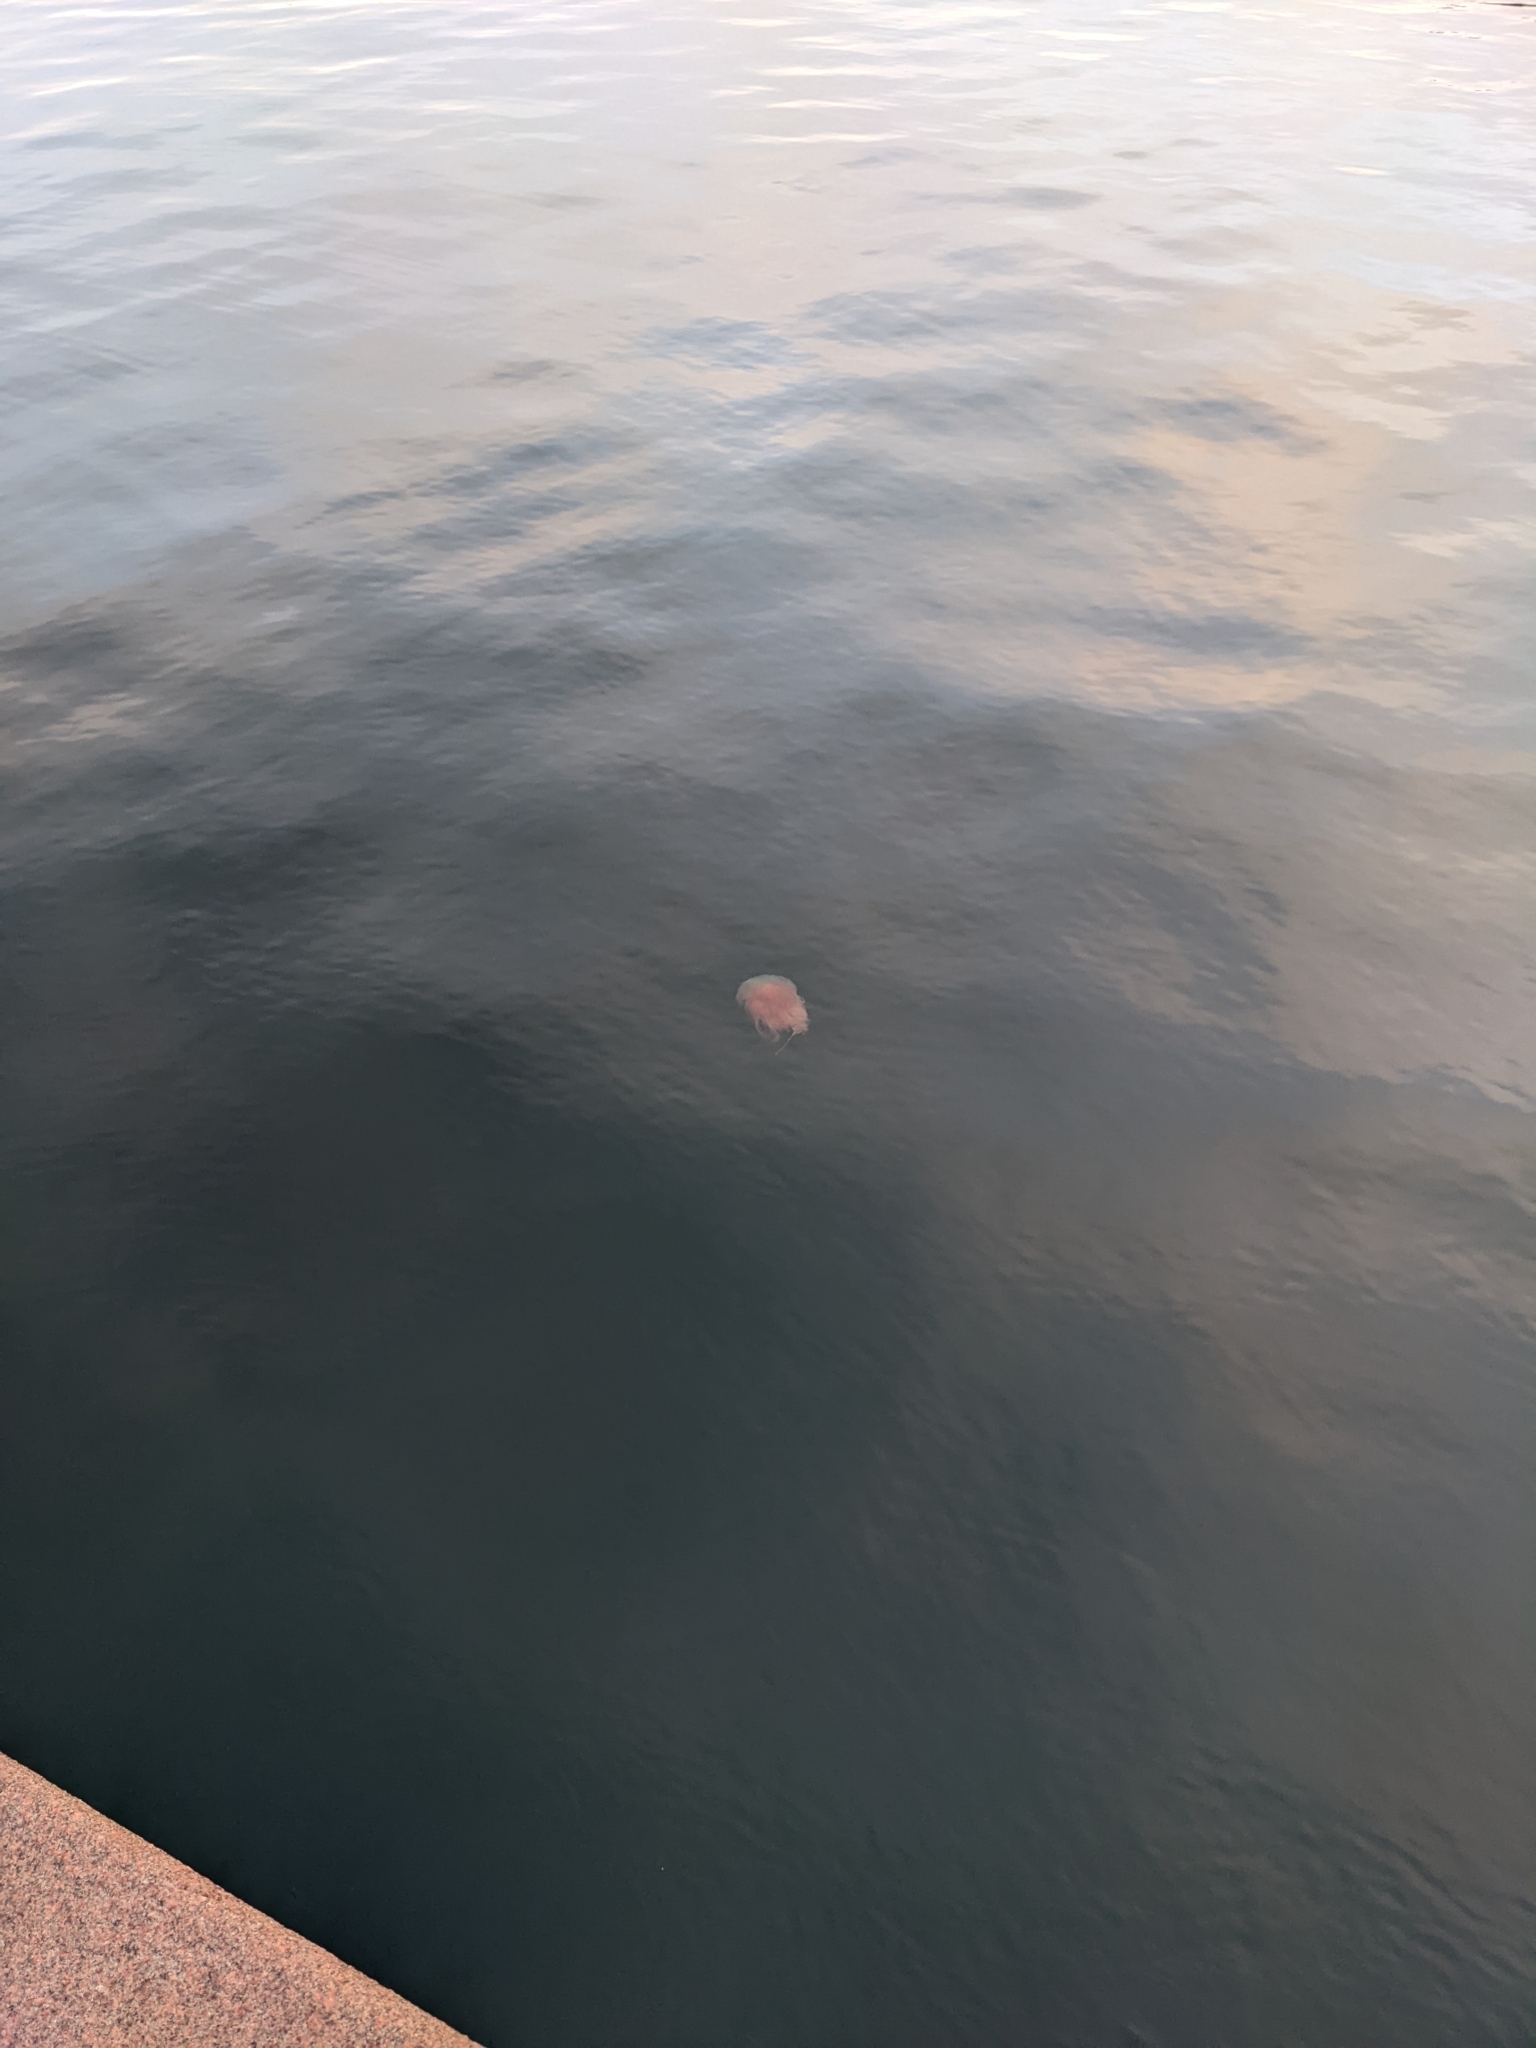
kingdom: Animalia
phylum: Cnidaria
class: Scyphozoa
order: Semaeostomeae
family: Cyaneidae
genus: Cyanea
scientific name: Cyanea capillata
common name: Lion's mane jellyfish
